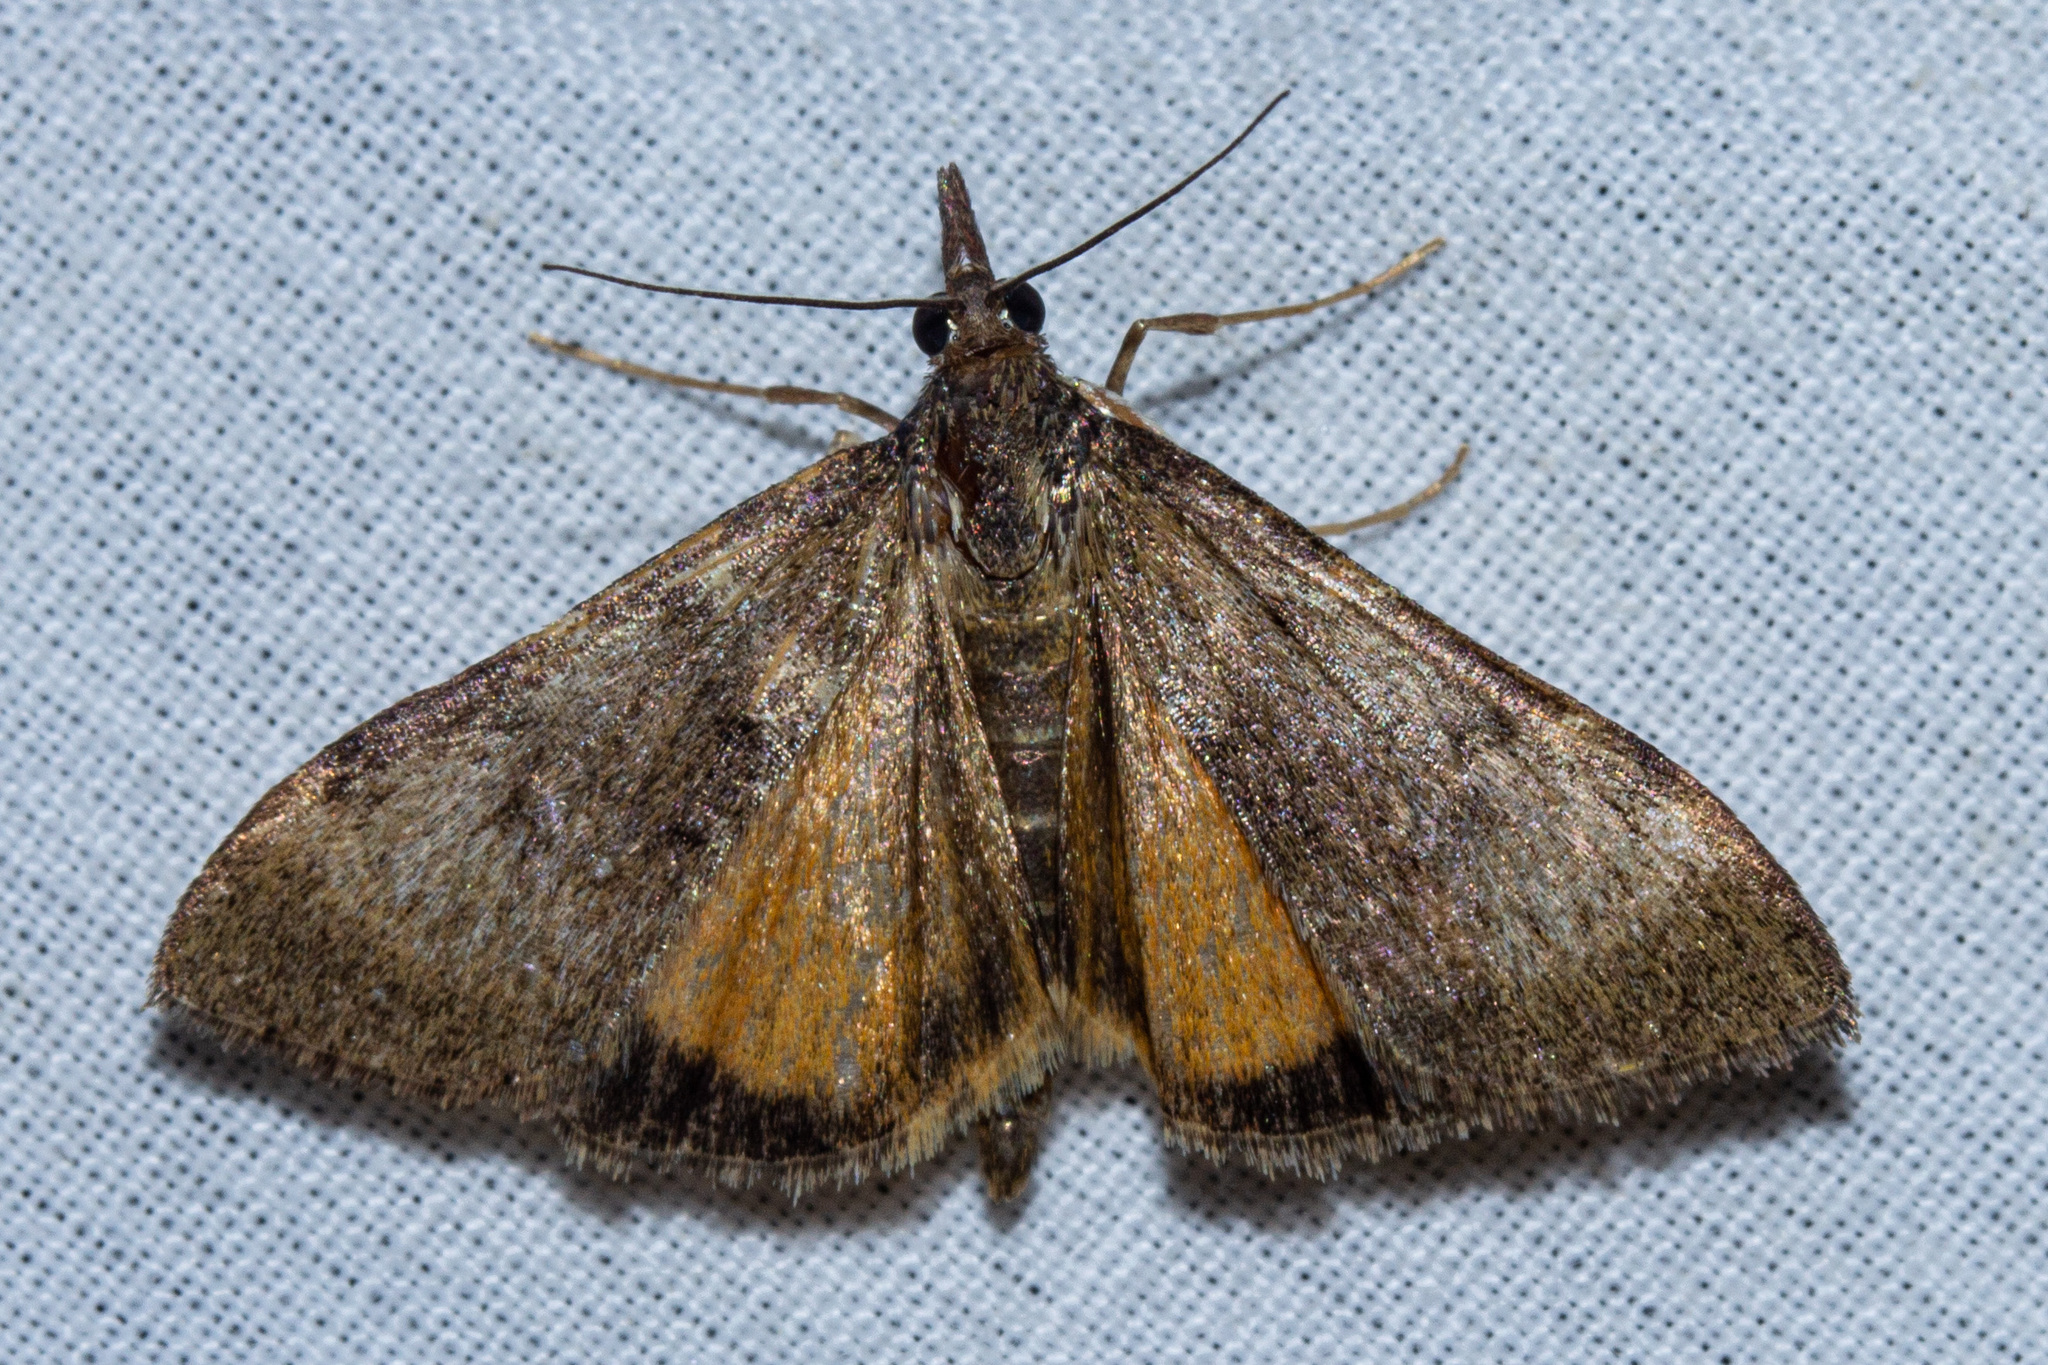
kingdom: Animalia
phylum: Arthropoda
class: Insecta
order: Lepidoptera
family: Crambidae
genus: Uresiphita
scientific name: Uresiphita
